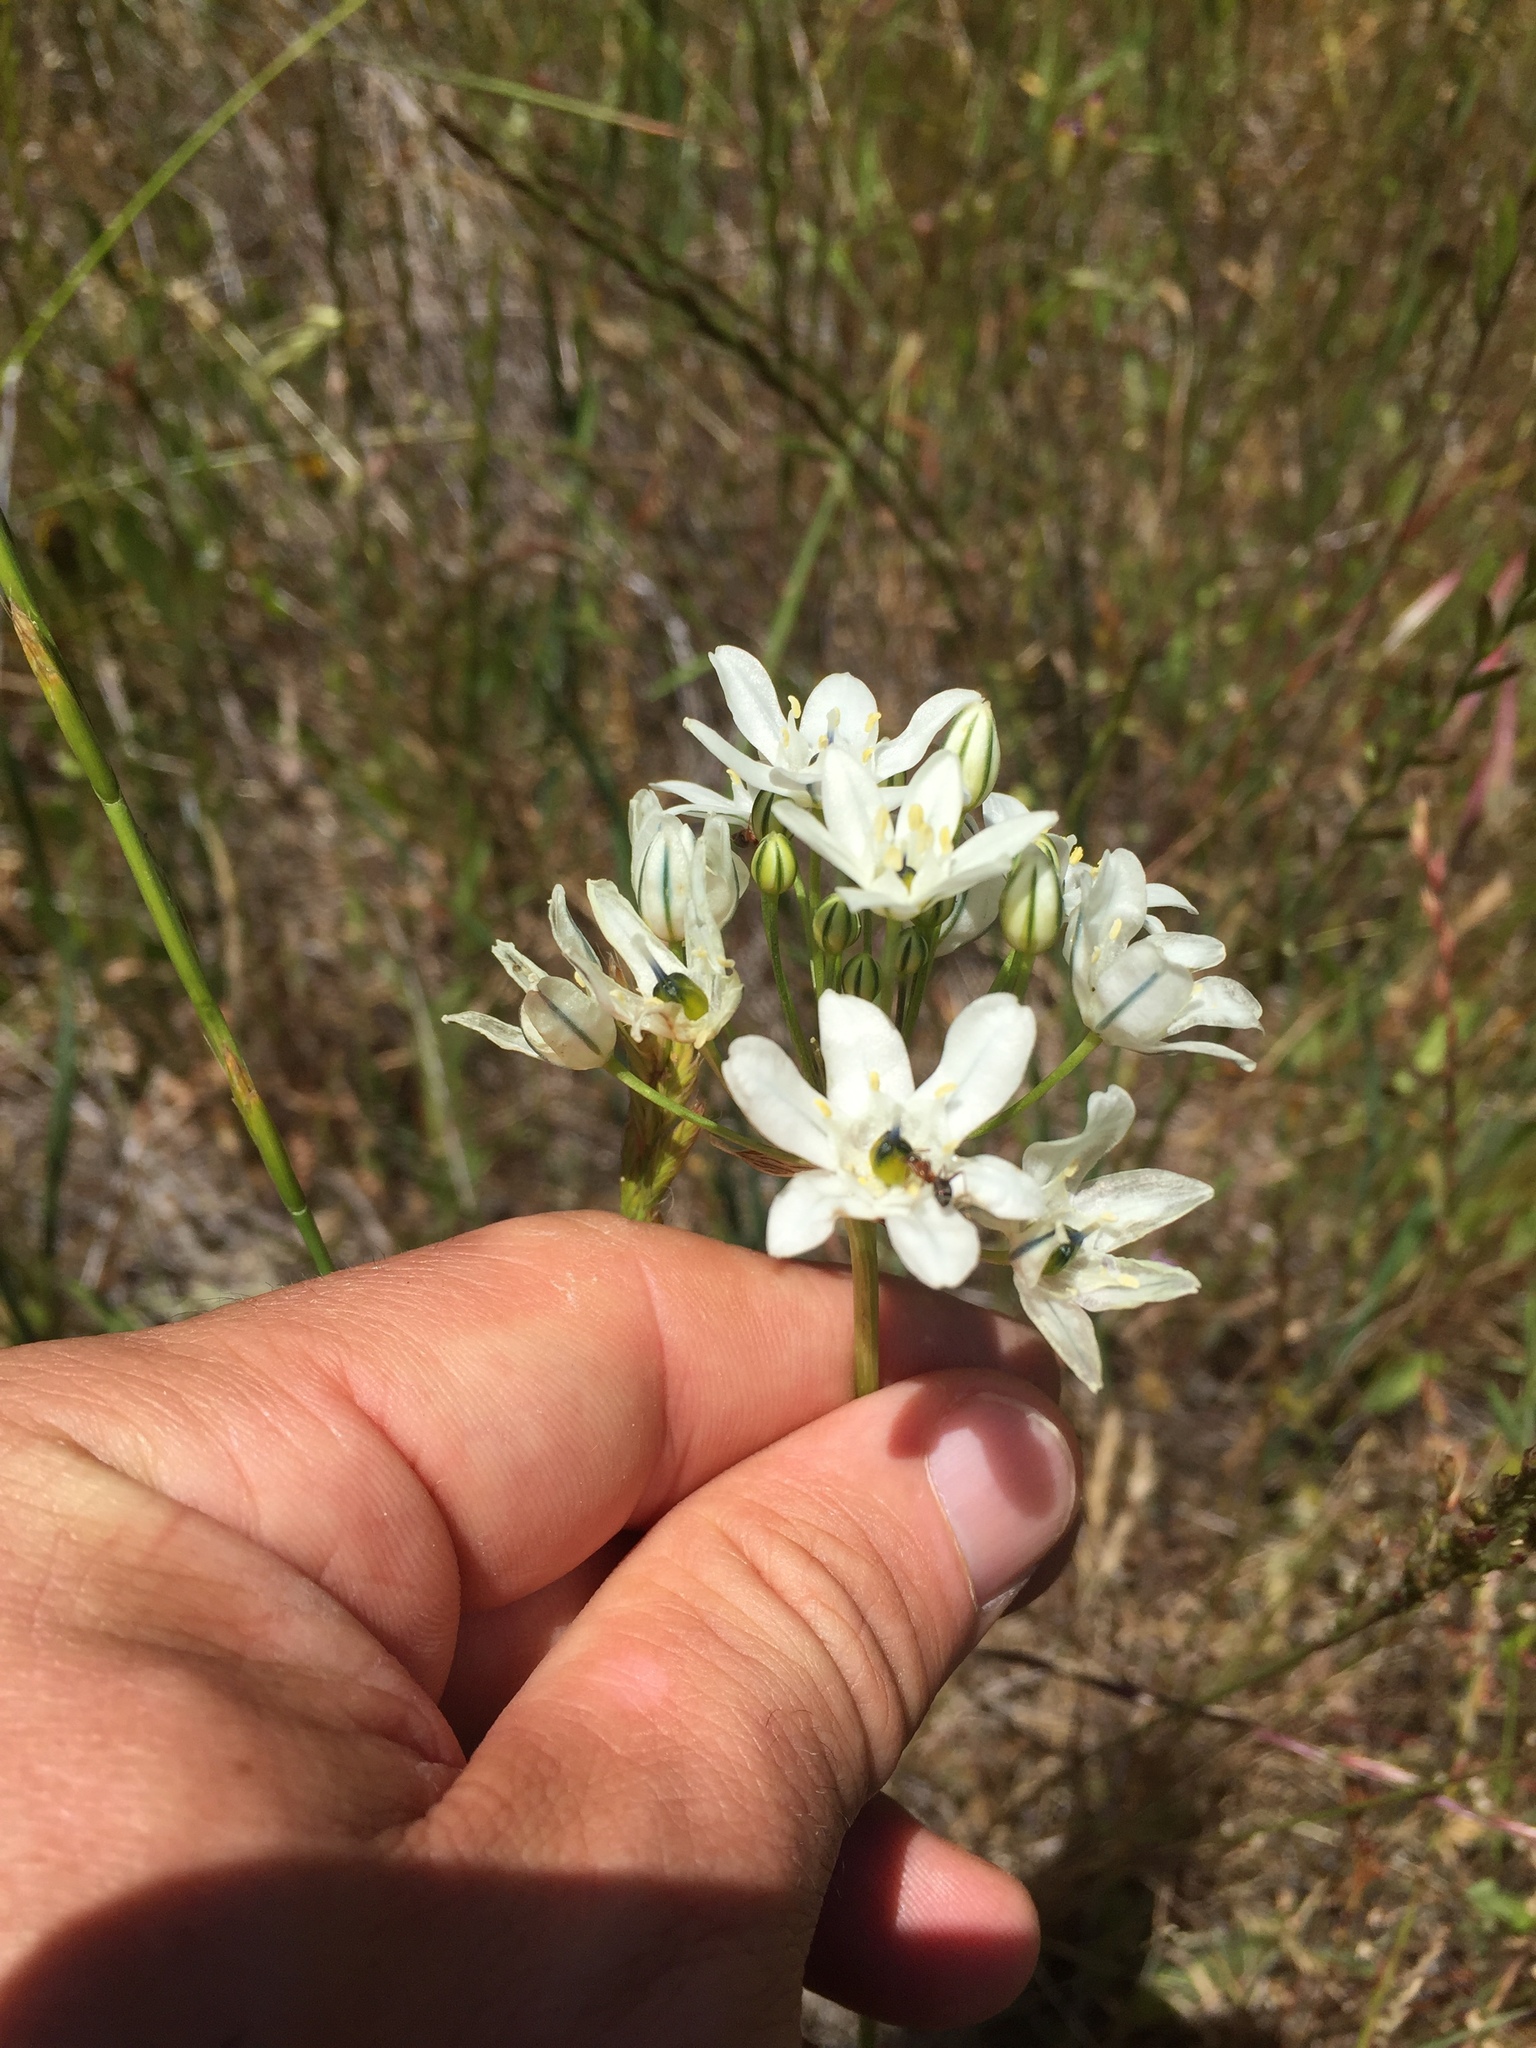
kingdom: Plantae
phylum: Tracheophyta
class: Liliopsida
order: Asparagales
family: Asparagaceae
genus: Triteleia
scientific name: Triteleia hyacinthina
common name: White brodiaea
